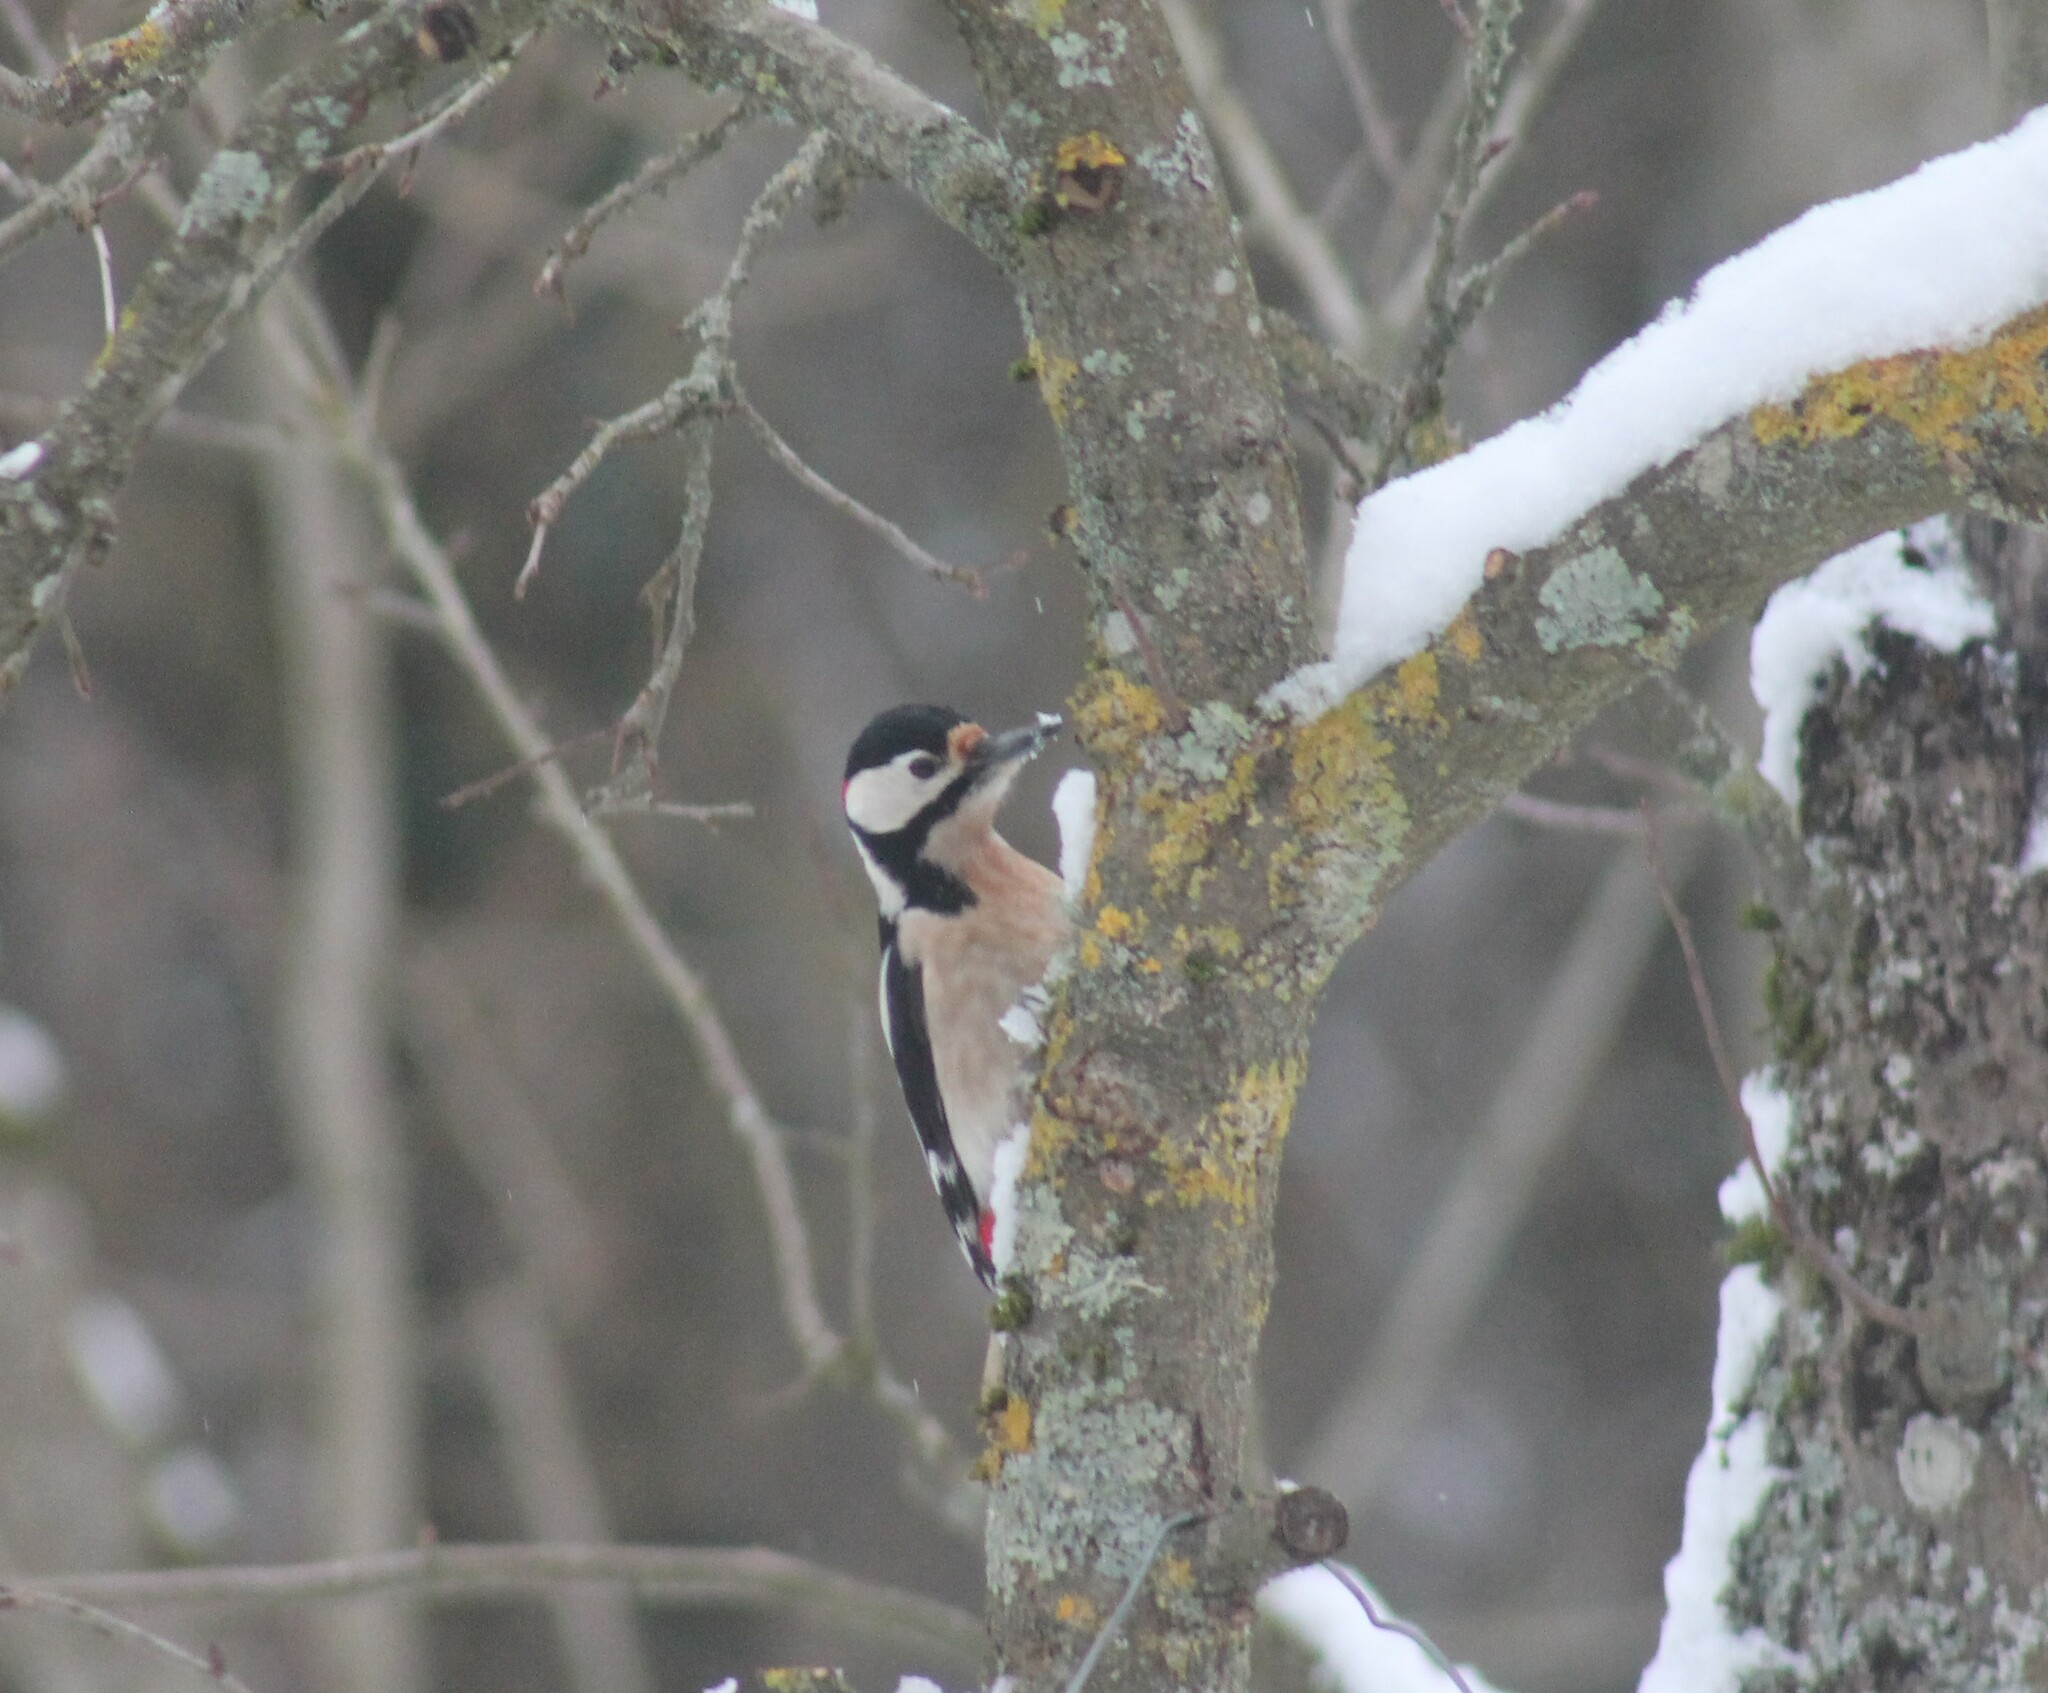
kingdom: Animalia
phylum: Chordata
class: Aves
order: Piciformes
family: Picidae
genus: Dendrocopos
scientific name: Dendrocopos major
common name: Great spotted woodpecker
